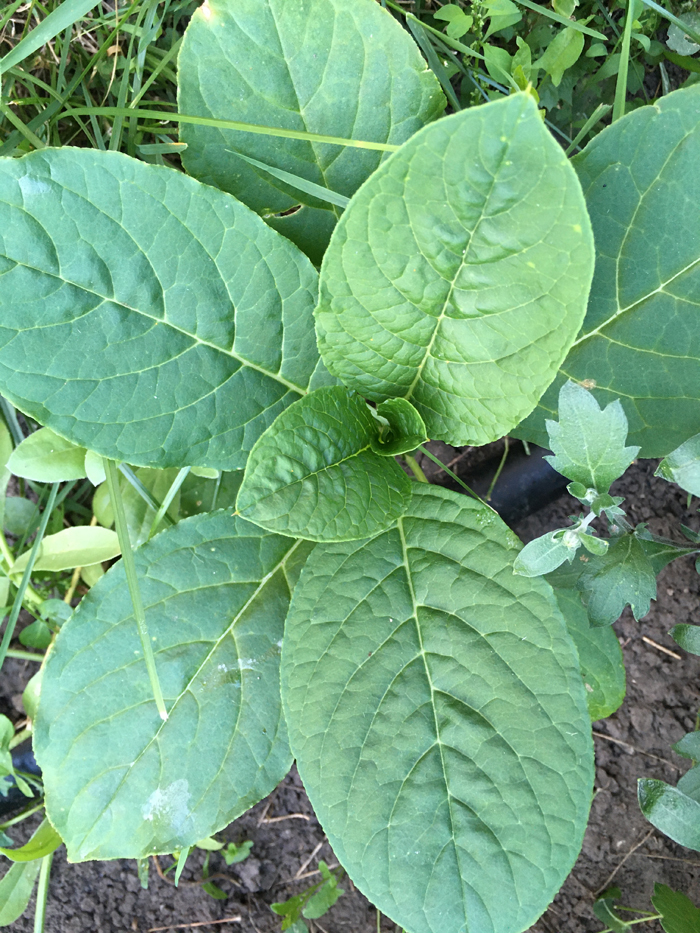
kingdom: Plantae
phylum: Tracheophyta
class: Magnoliopsida
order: Caryophyllales
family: Phytolaccaceae
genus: Phytolacca
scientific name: Phytolacca acinosa
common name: Indian pokeweed
